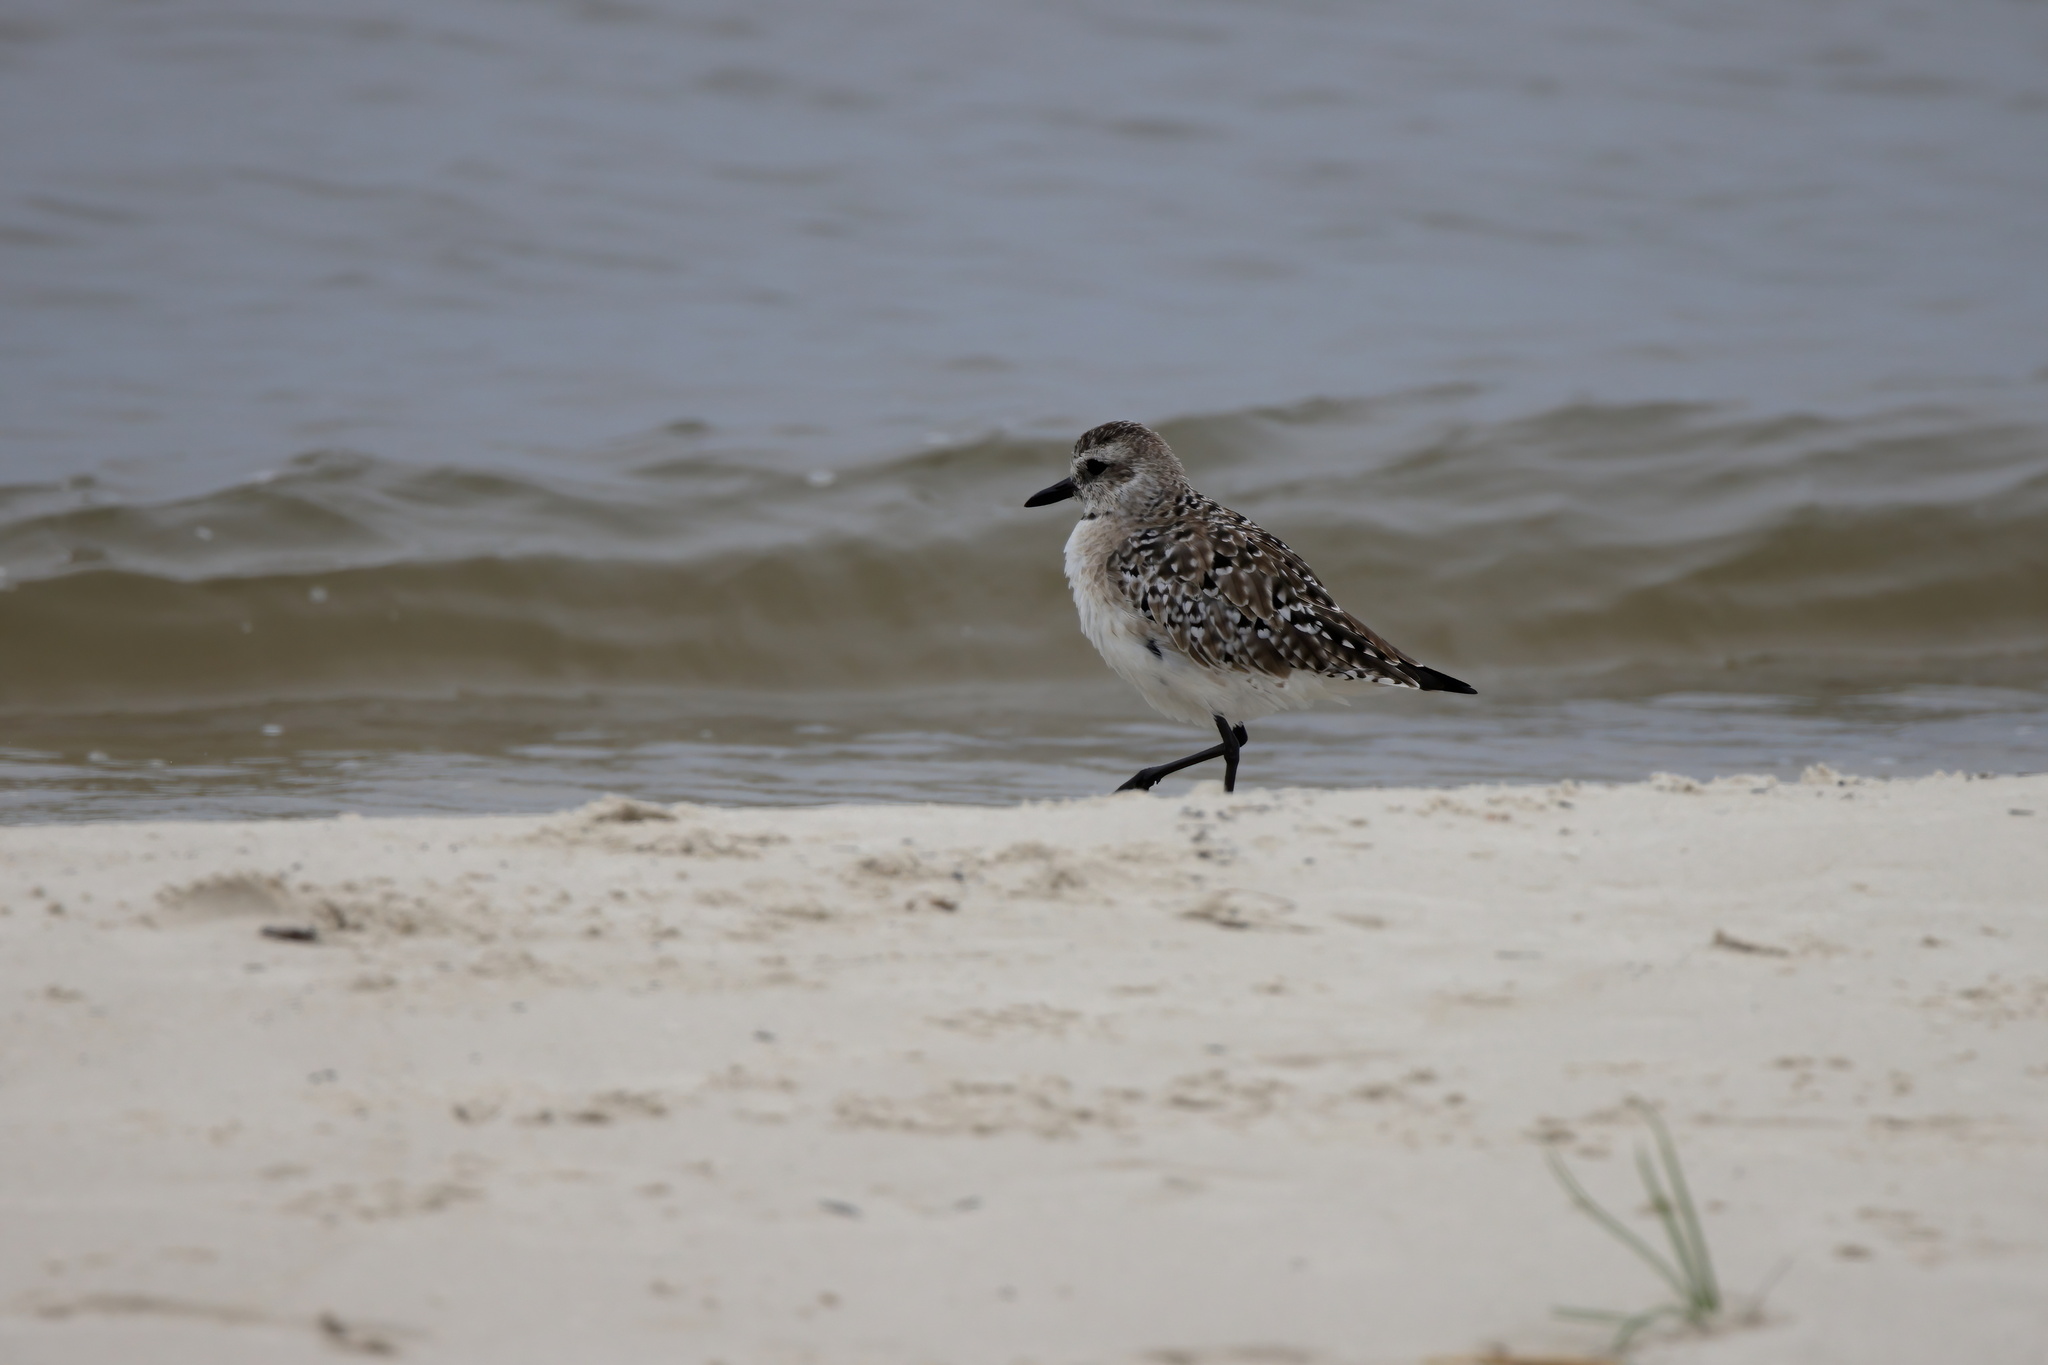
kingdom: Animalia
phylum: Chordata
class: Aves
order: Charadriiformes
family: Charadriidae
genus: Pluvialis
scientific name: Pluvialis squatarola
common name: Grey plover
